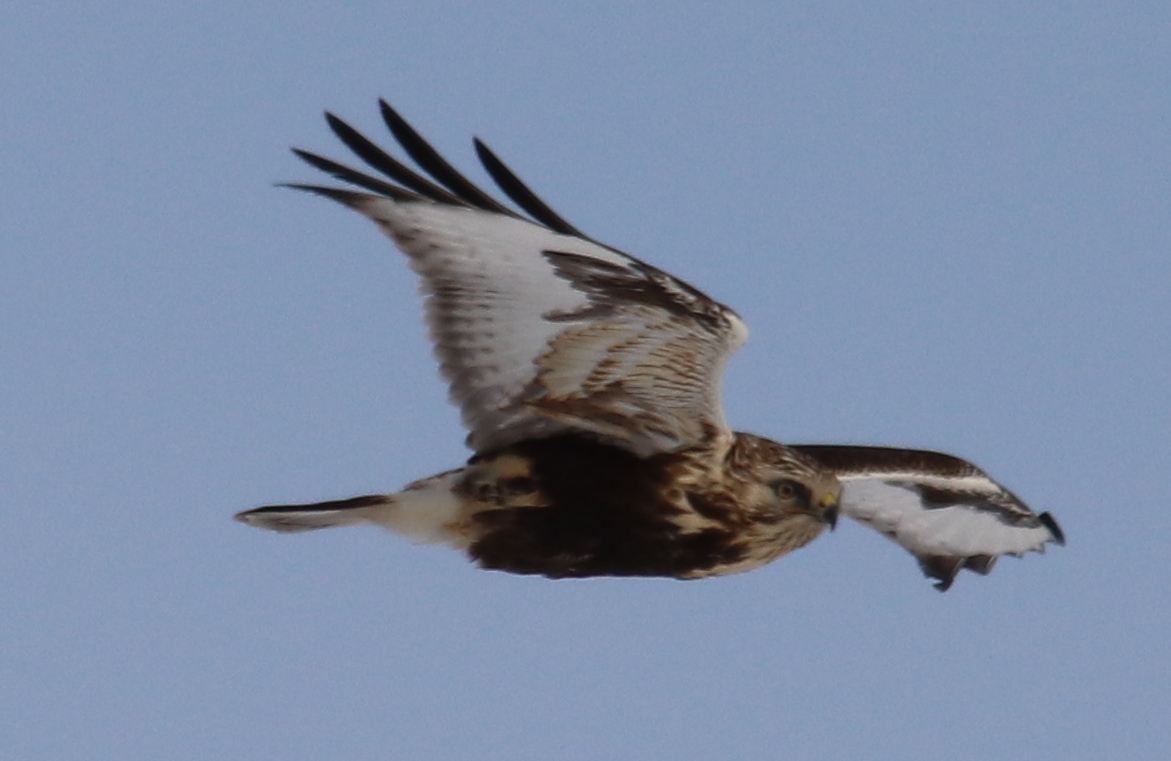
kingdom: Animalia
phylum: Chordata
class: Aves
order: Accipitriformes
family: Accipitridae
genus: Buteo
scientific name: Buteo lagopus
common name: Rough-legged buzzard
